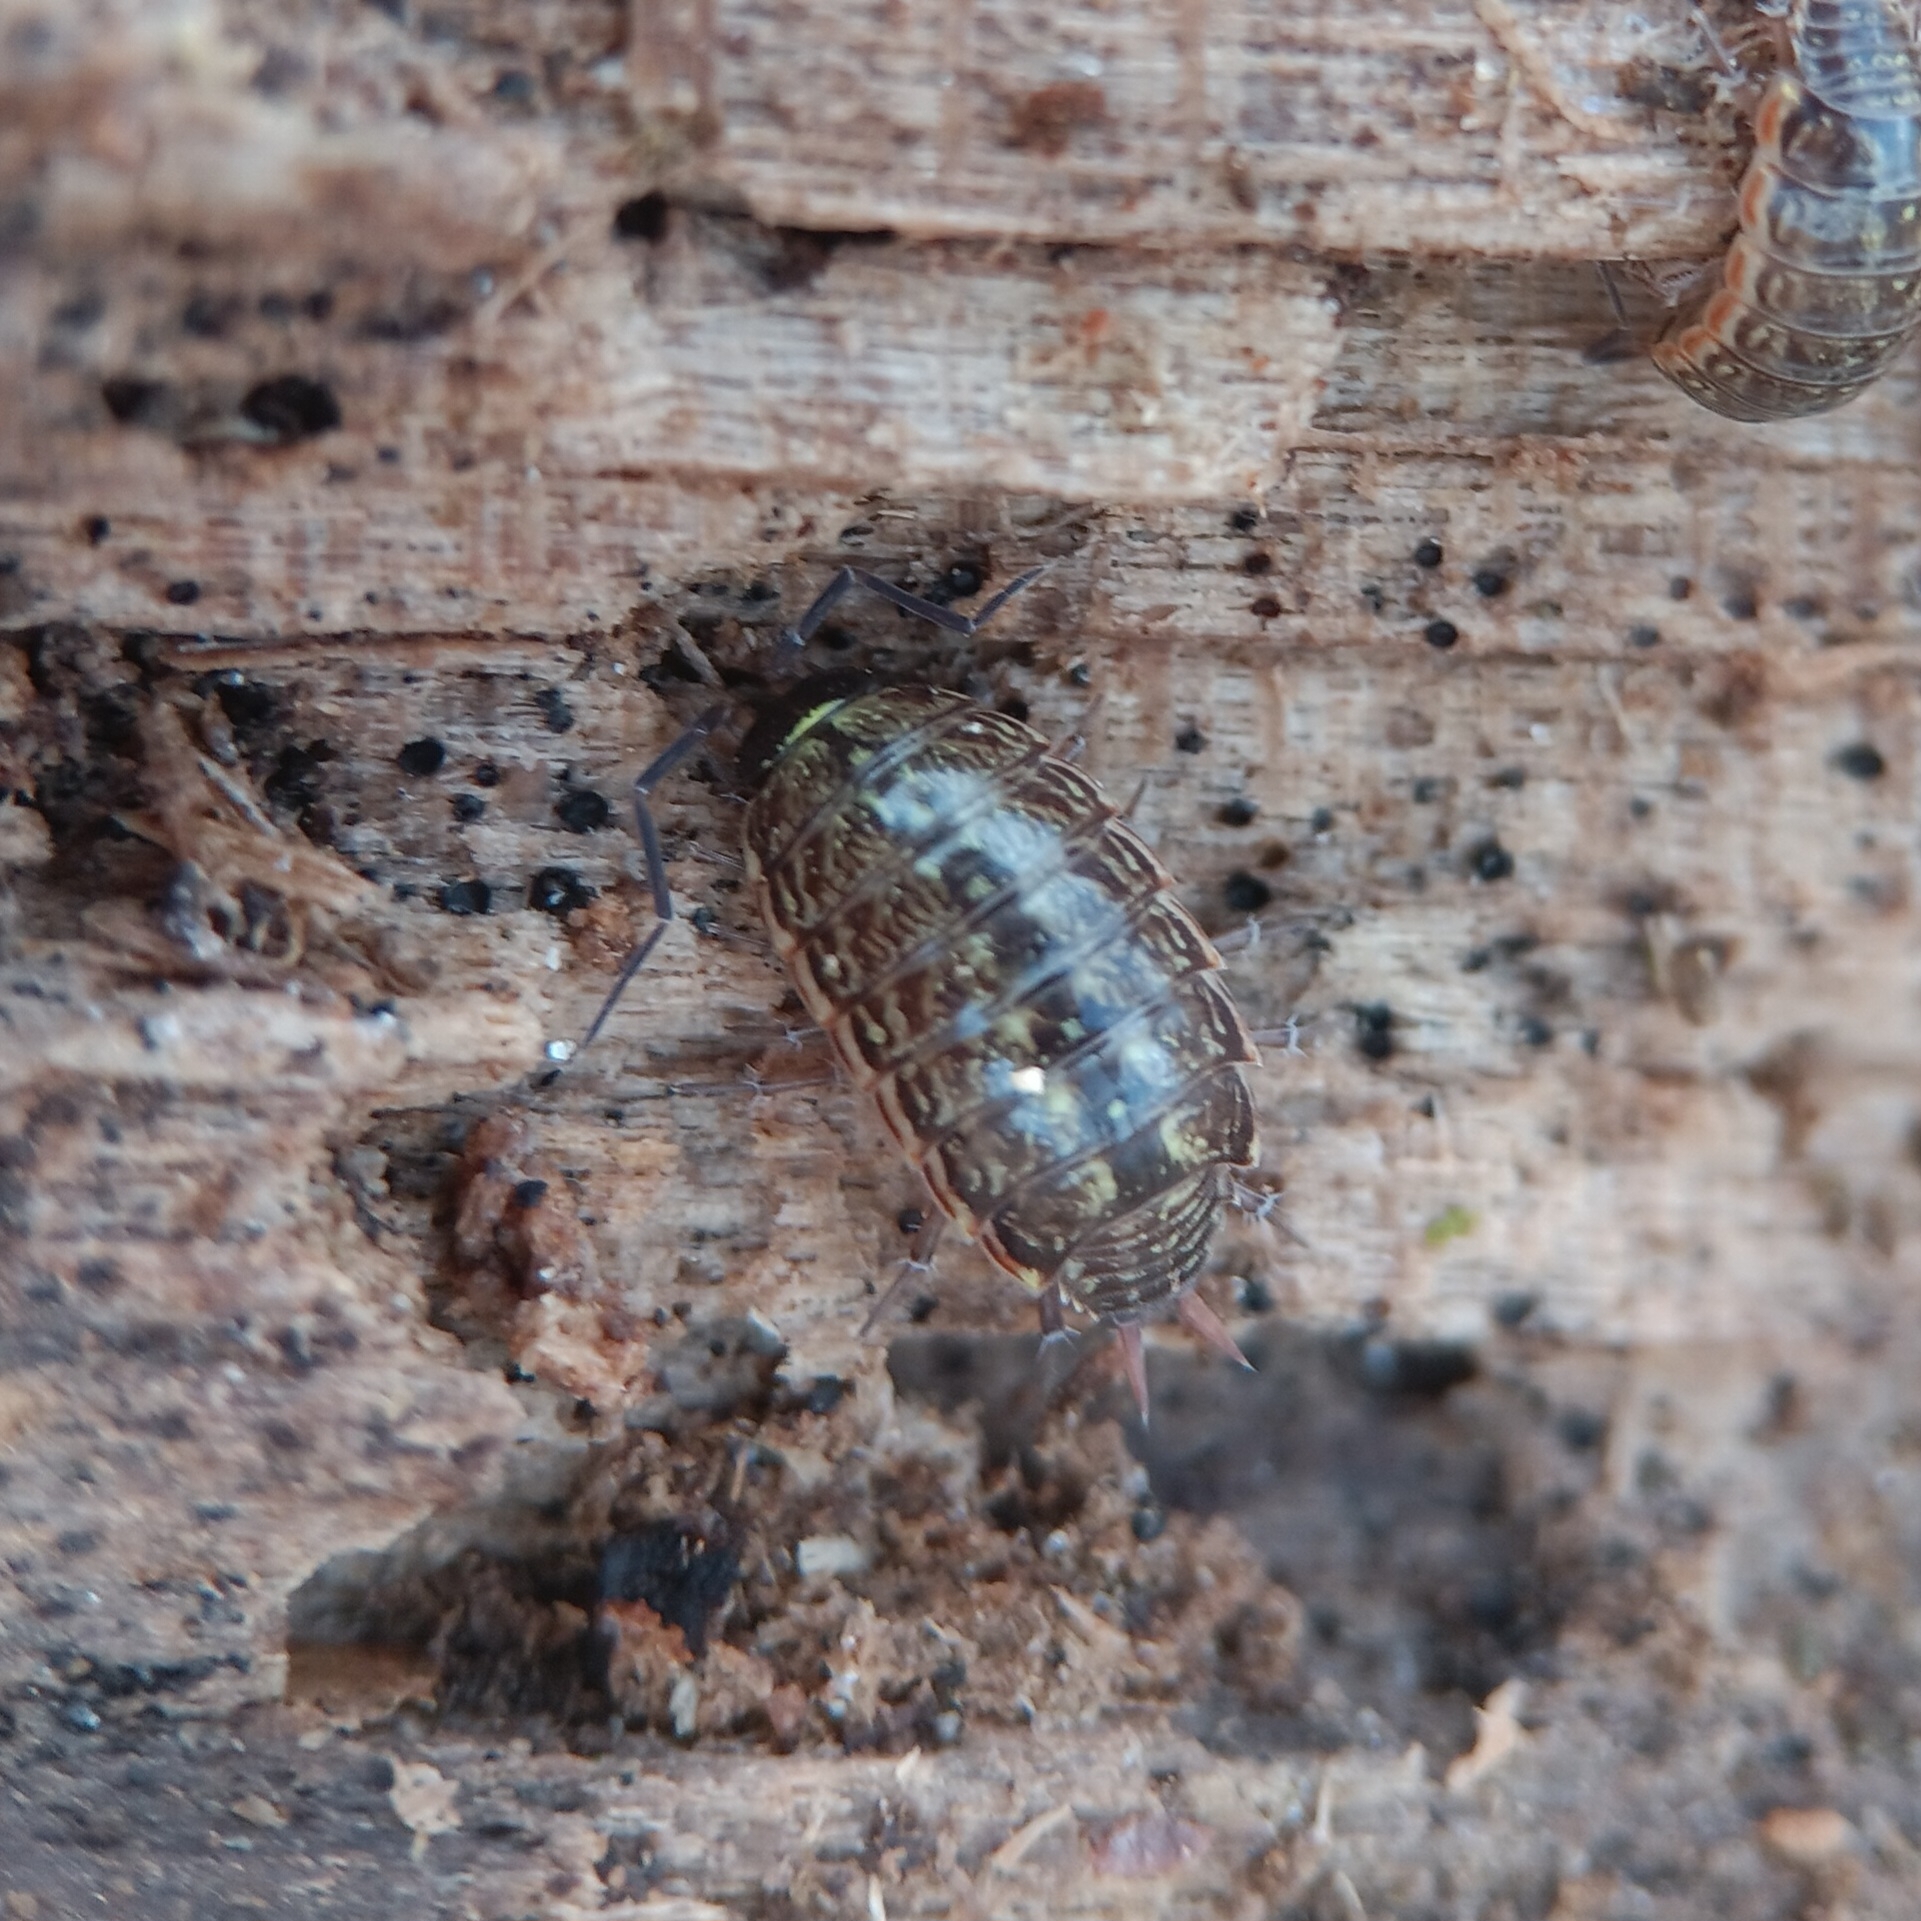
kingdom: Animalia
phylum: Arthropoda
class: Malacostraca
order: Isopoda
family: Philosciidae
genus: Philoscia
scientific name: Philoscia muscorum
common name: Common striped woodlouse
